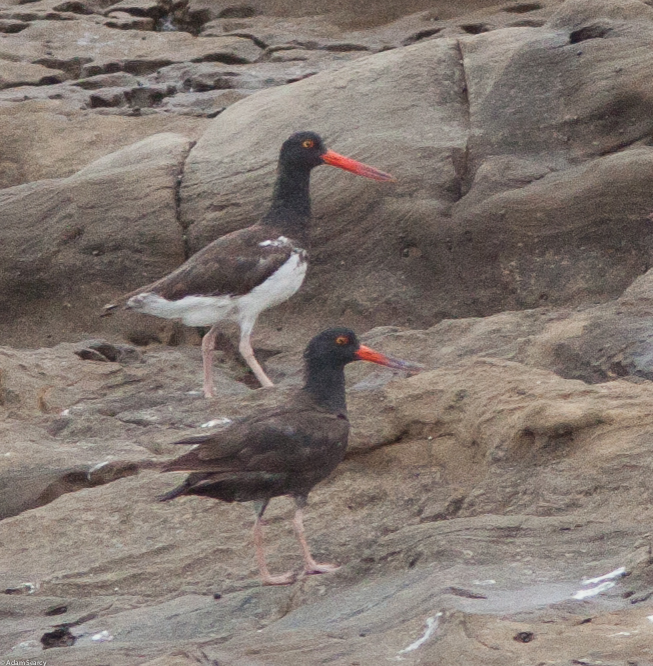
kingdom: Animalia
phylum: Chordata
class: Aves
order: Charadriiformes
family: Haematopodidae
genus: Haematopus
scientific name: Haematopus
